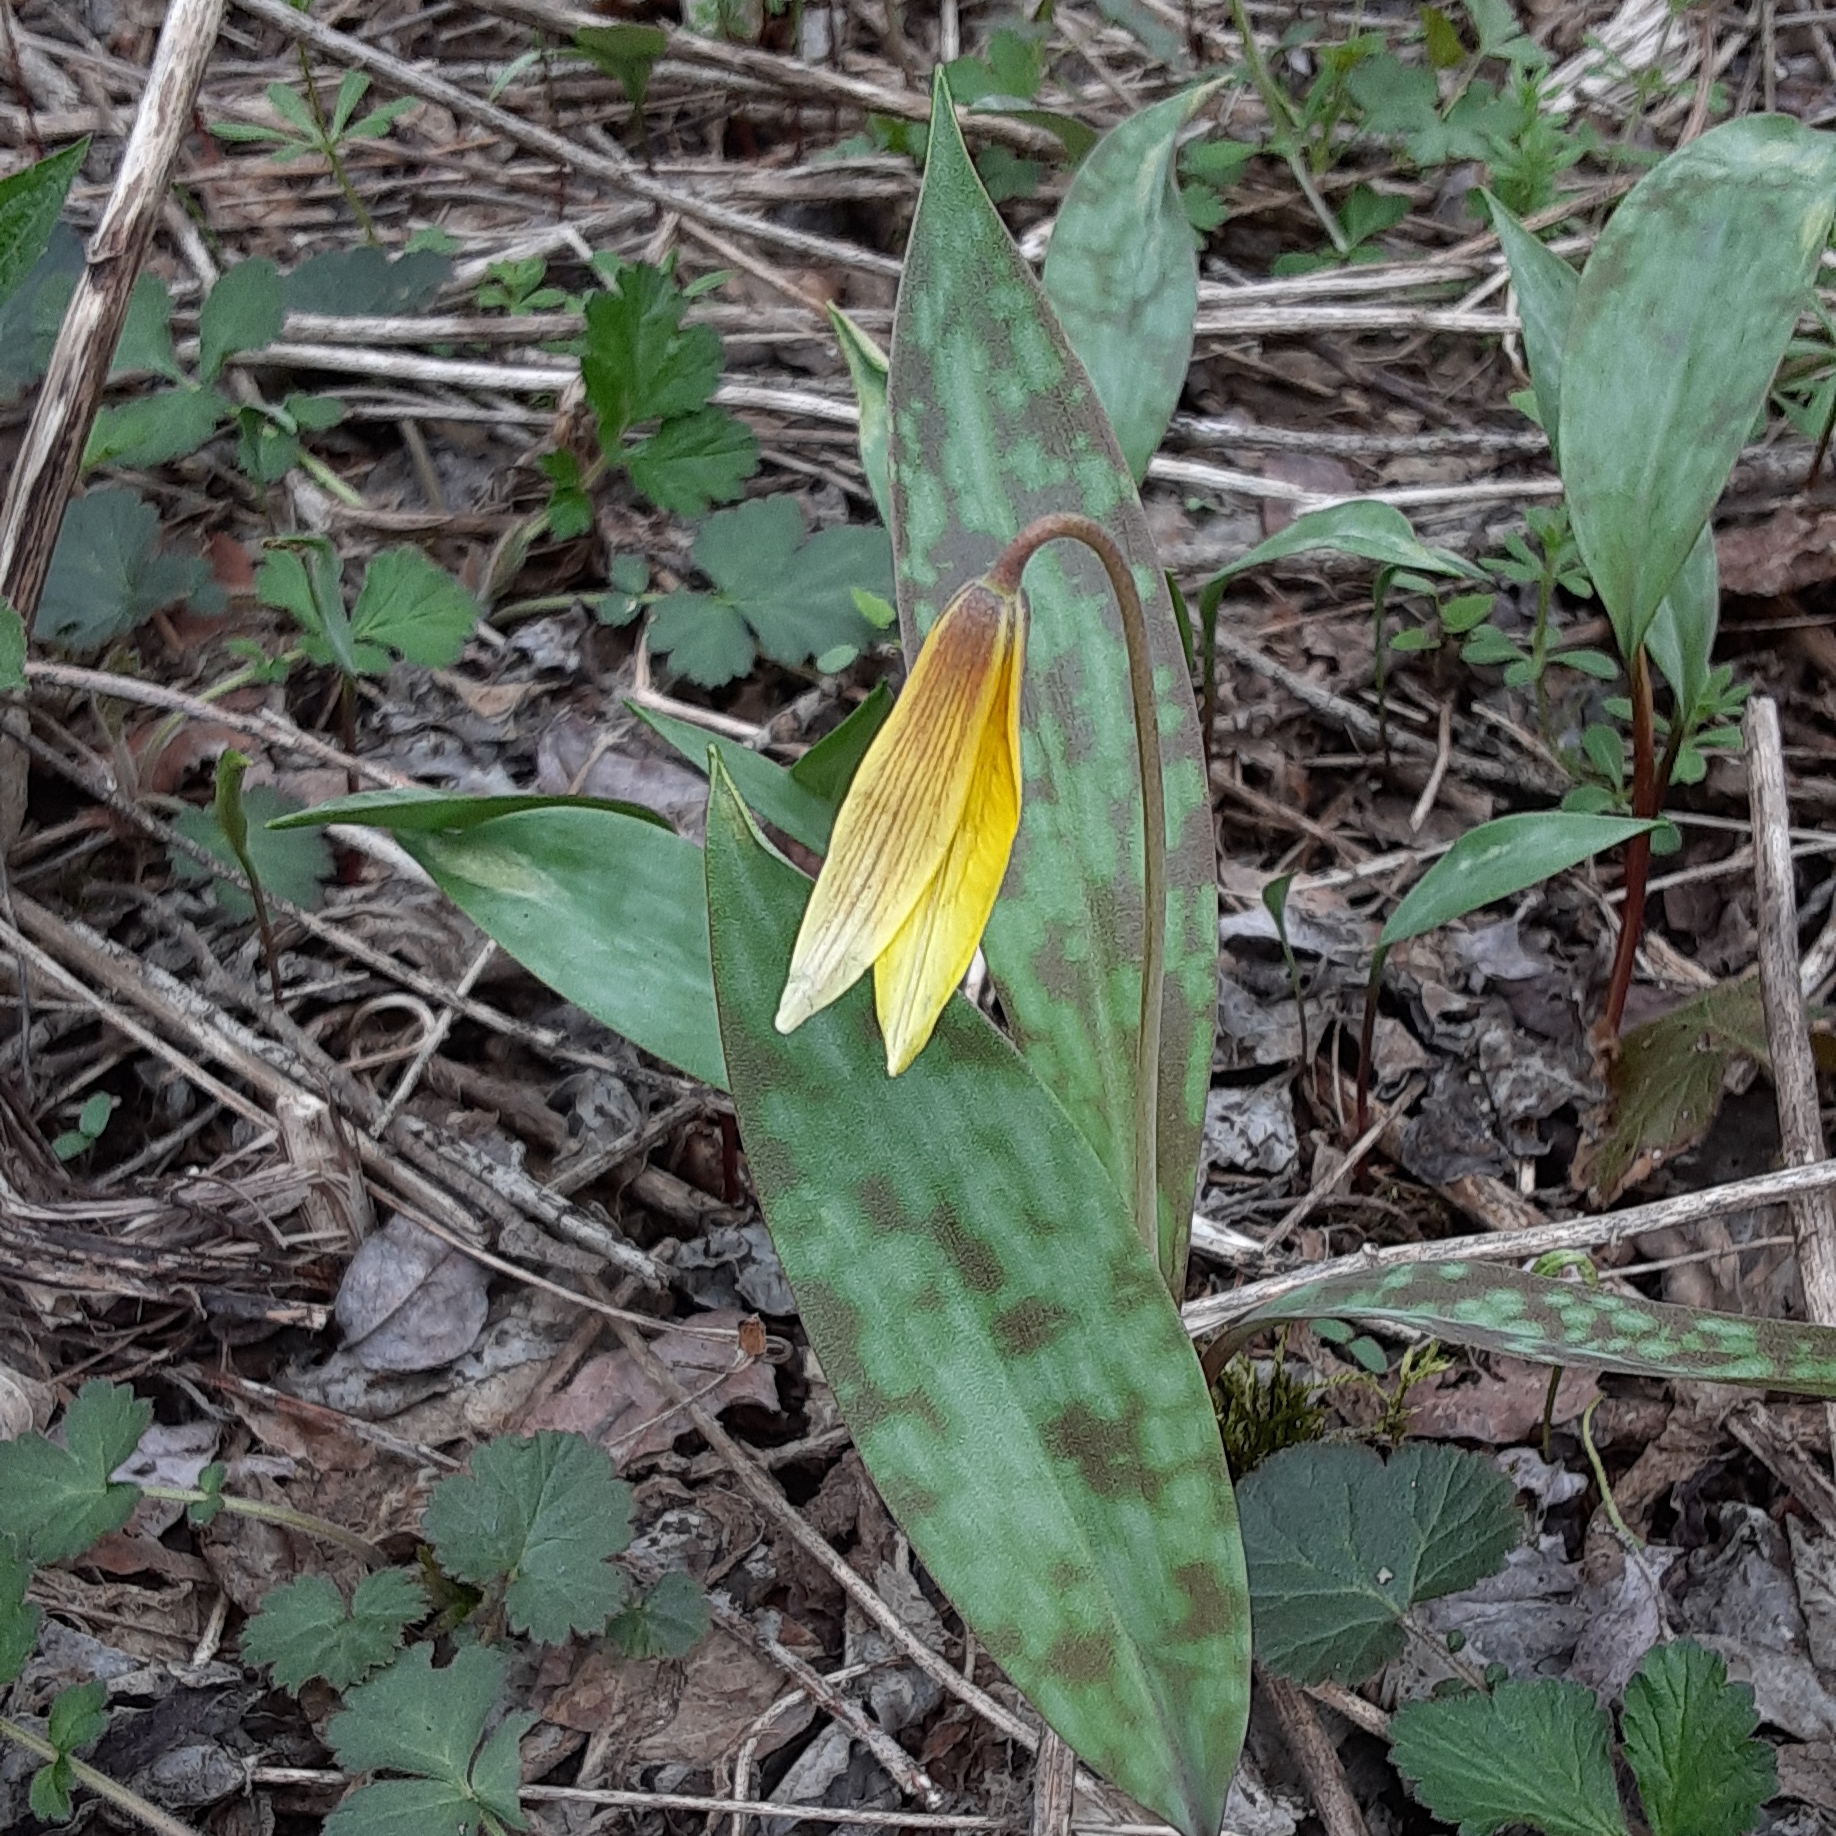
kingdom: Plantae
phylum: Tracheophyta
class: Liliopsida
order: Liliales
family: Liliaceae
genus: Erythronium
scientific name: Erythronium americanum
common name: Yellow adder's-tongue
